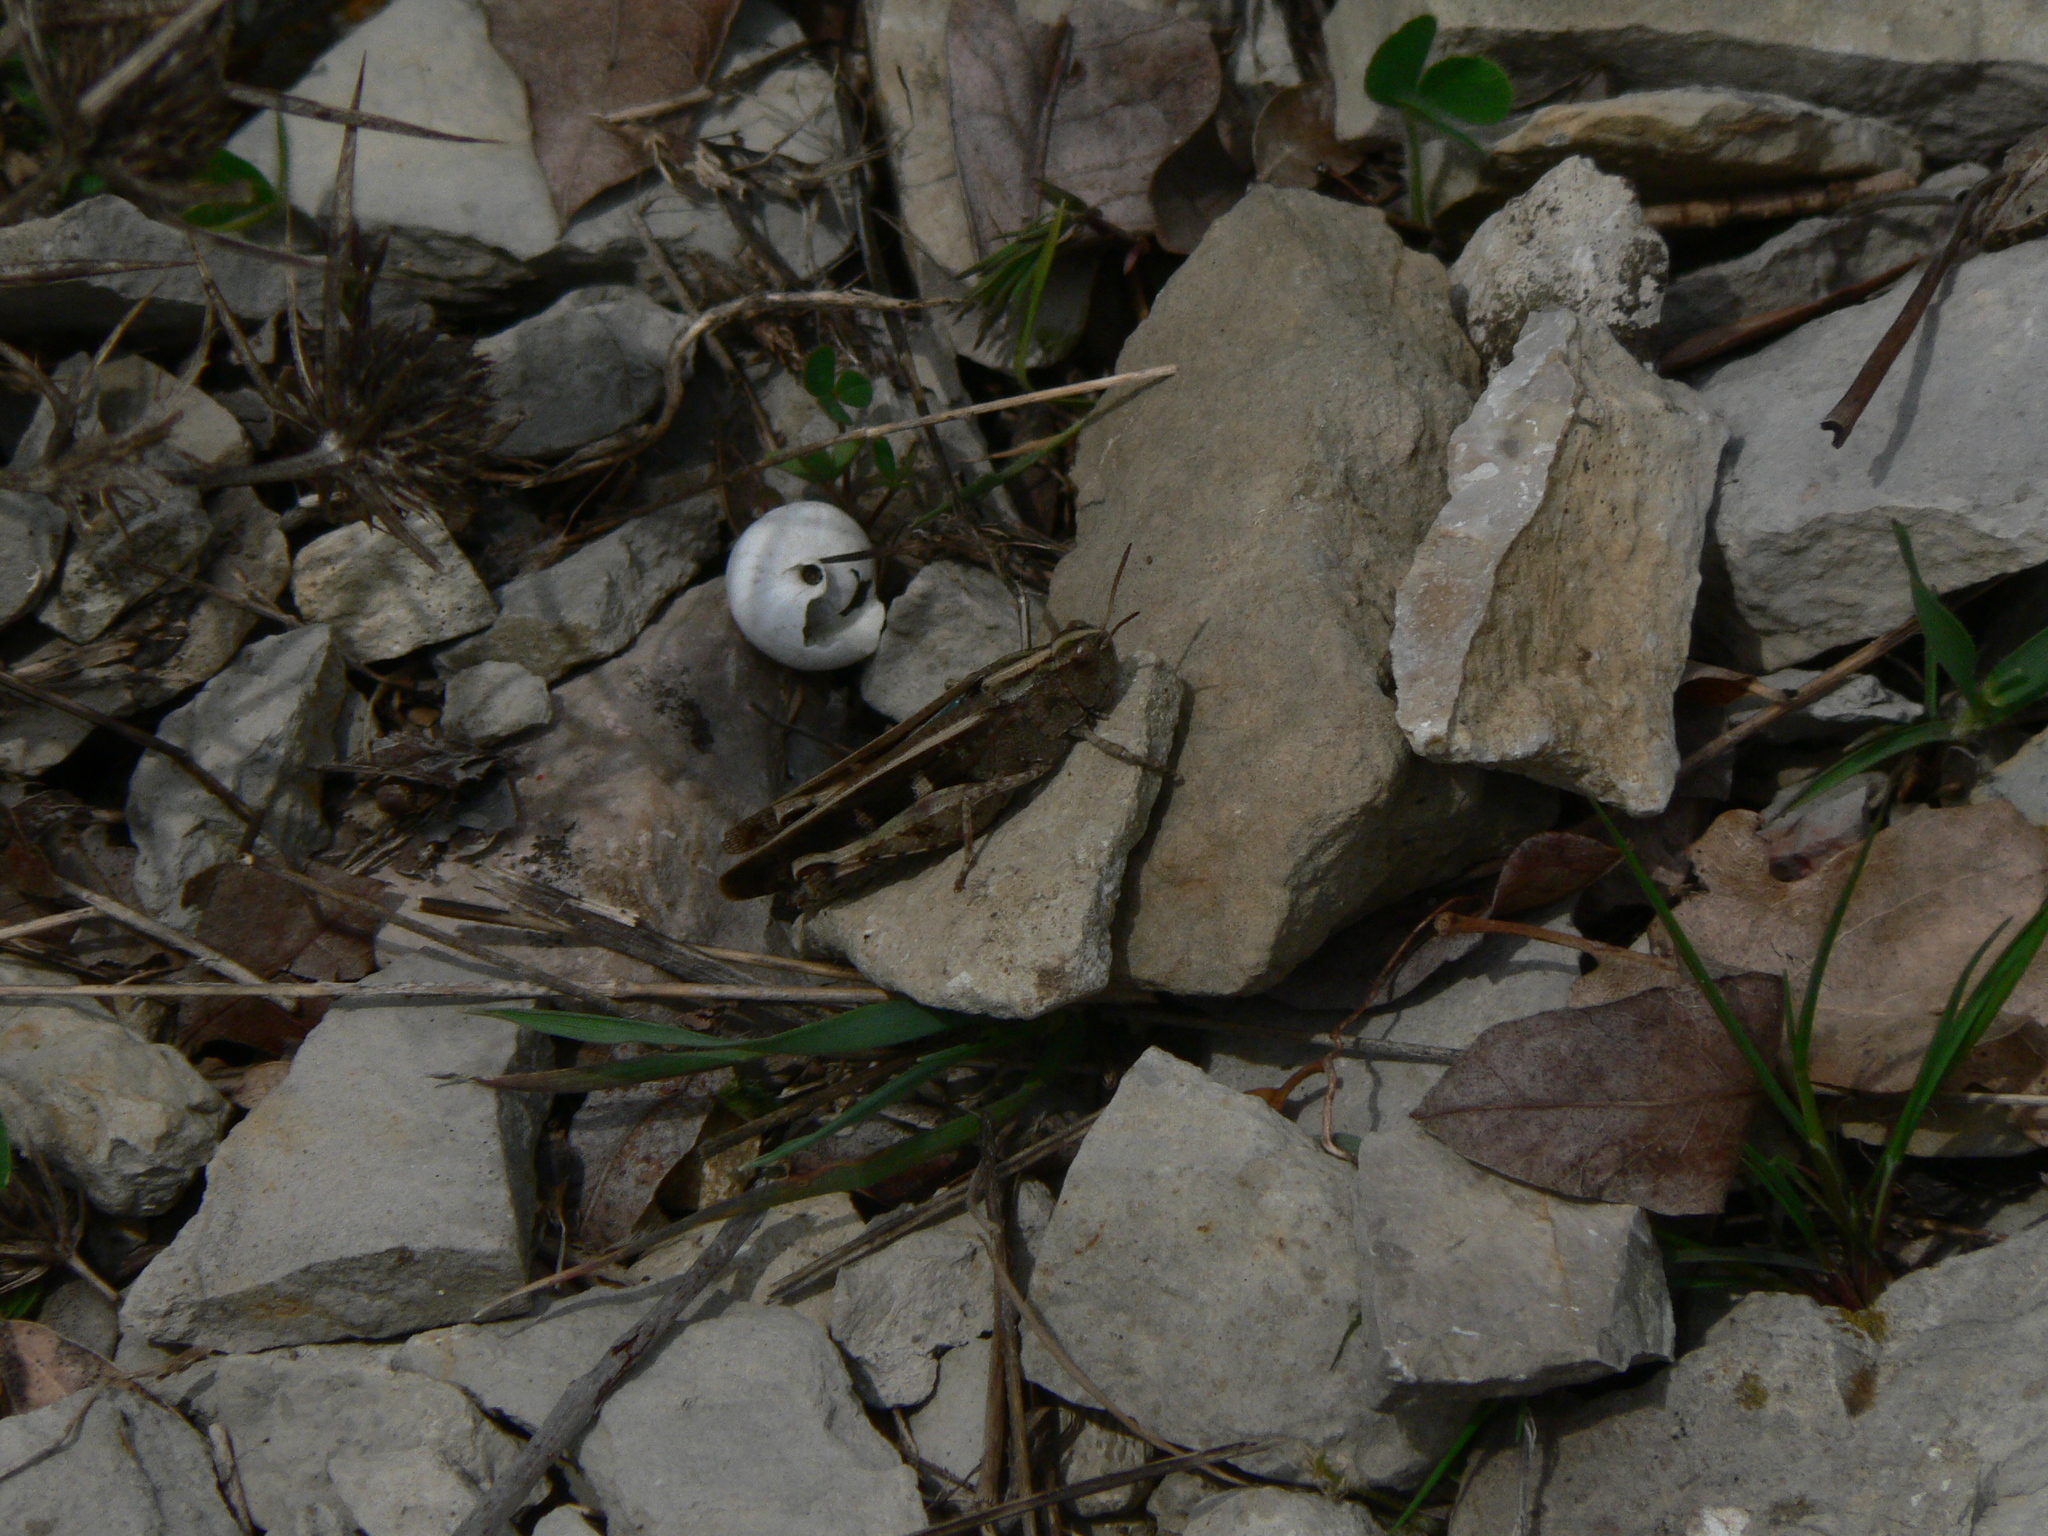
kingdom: Animalia
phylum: Arthropoda
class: Insecta
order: Orthoptera
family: Acrididae
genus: Aiolopus
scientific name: Aiolopus strepens
